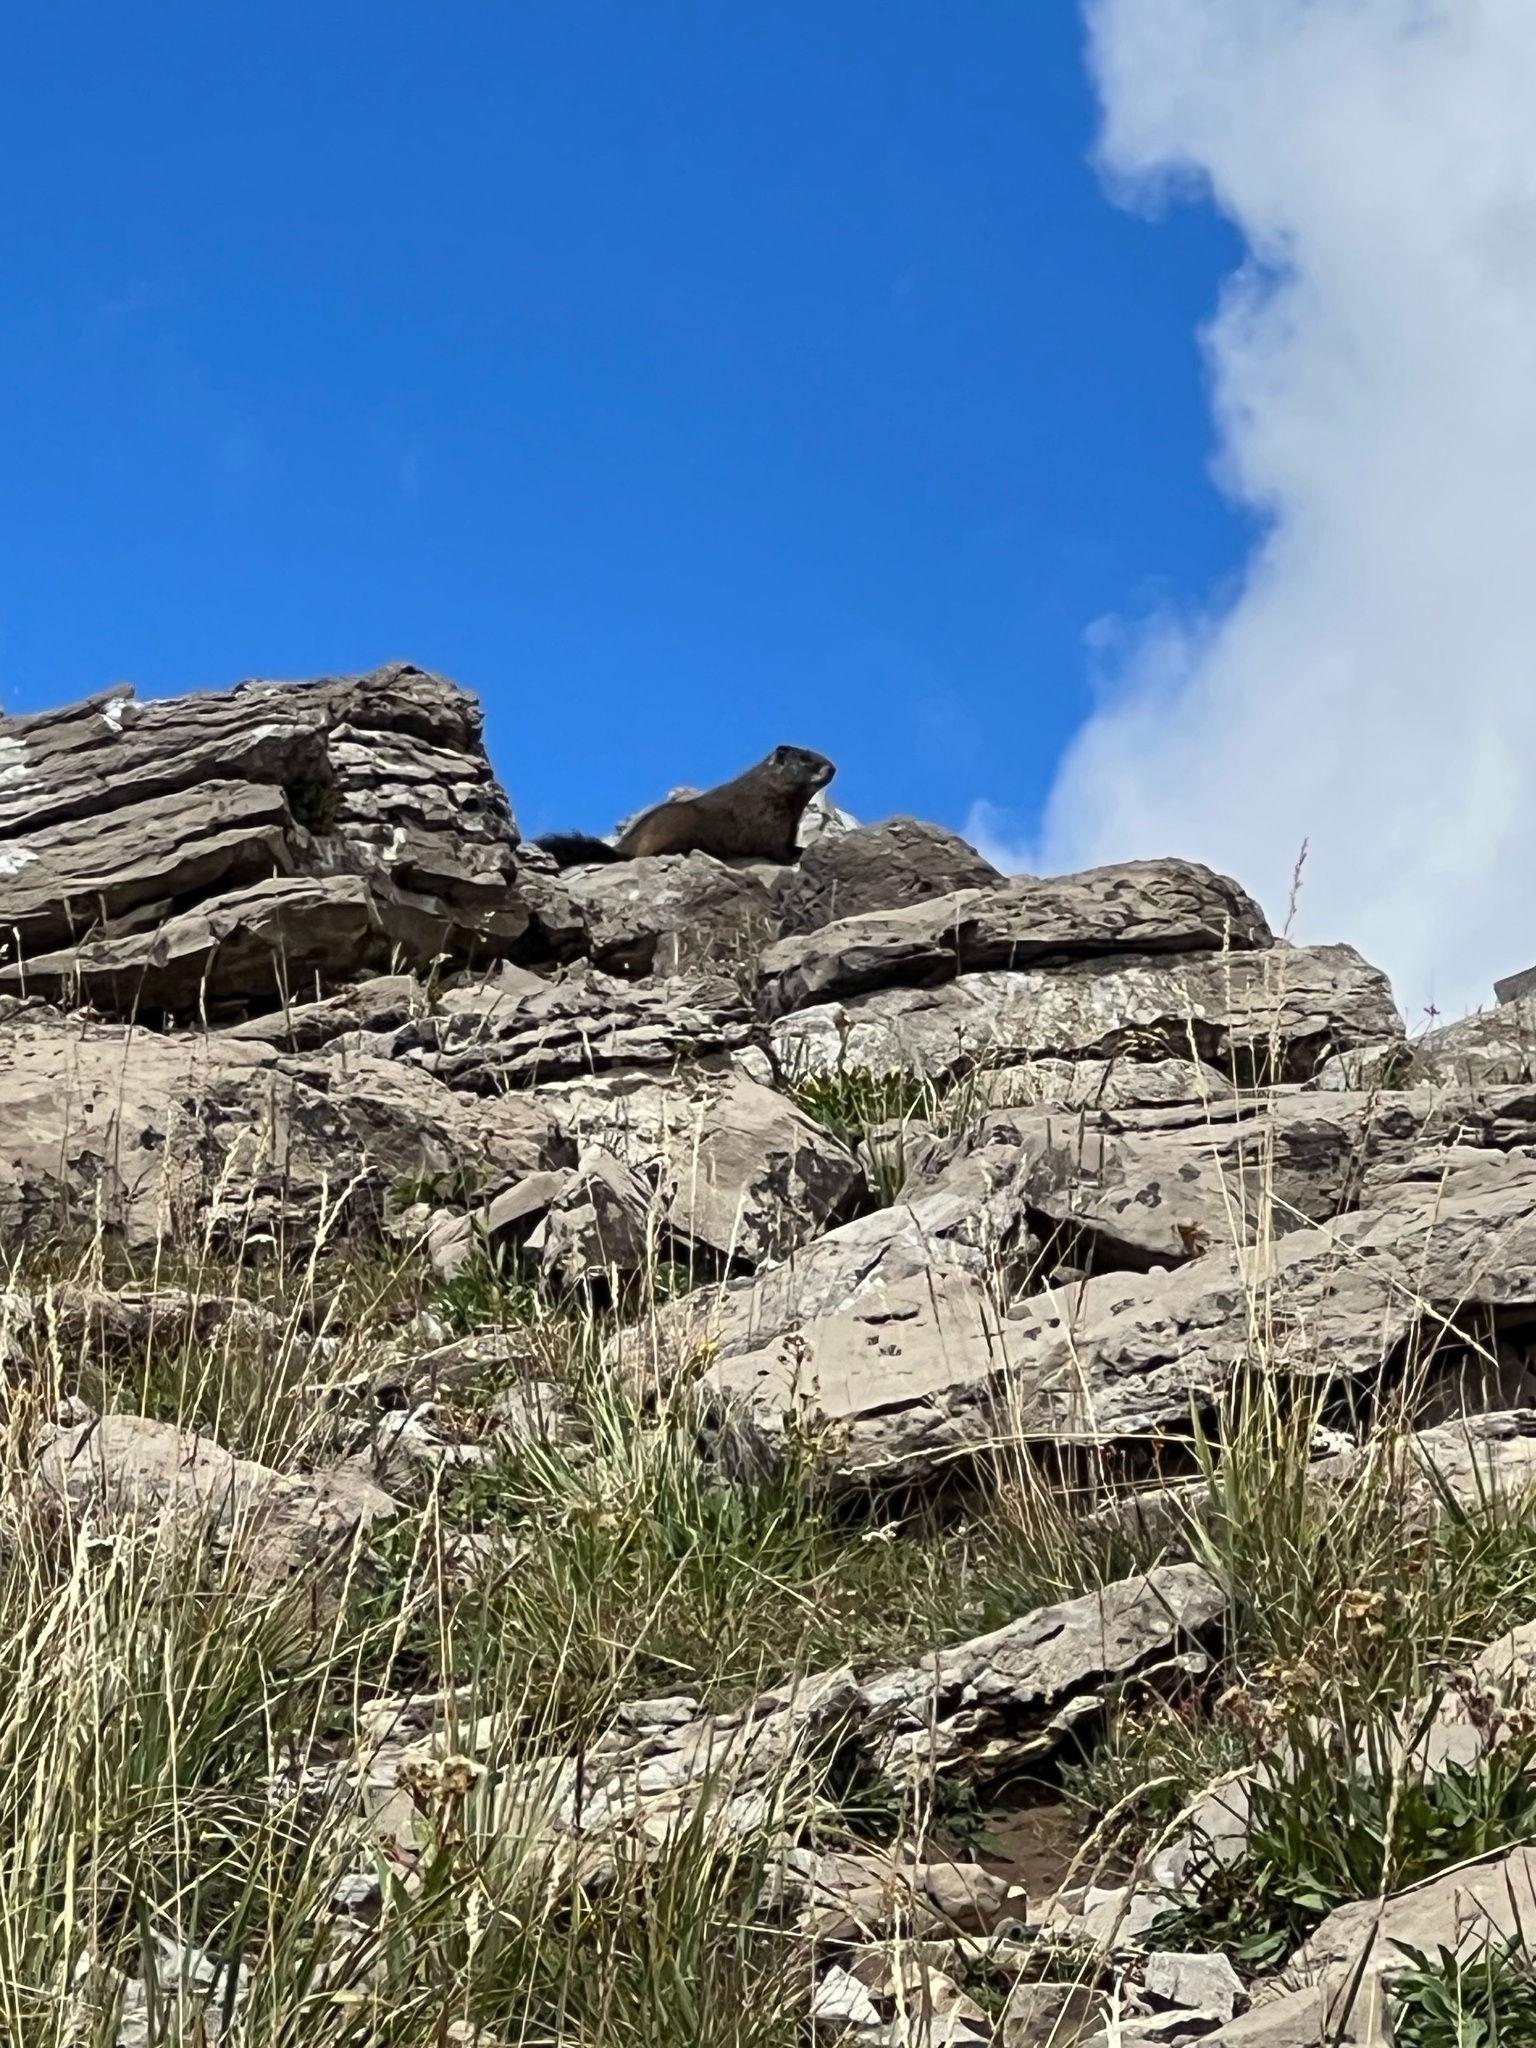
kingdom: Animalia
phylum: Chordata
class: Mammalia
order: Rodentia
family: Sciuridae
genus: Marmota
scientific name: Marmota flaviventris
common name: Yellow-bellied marmot
